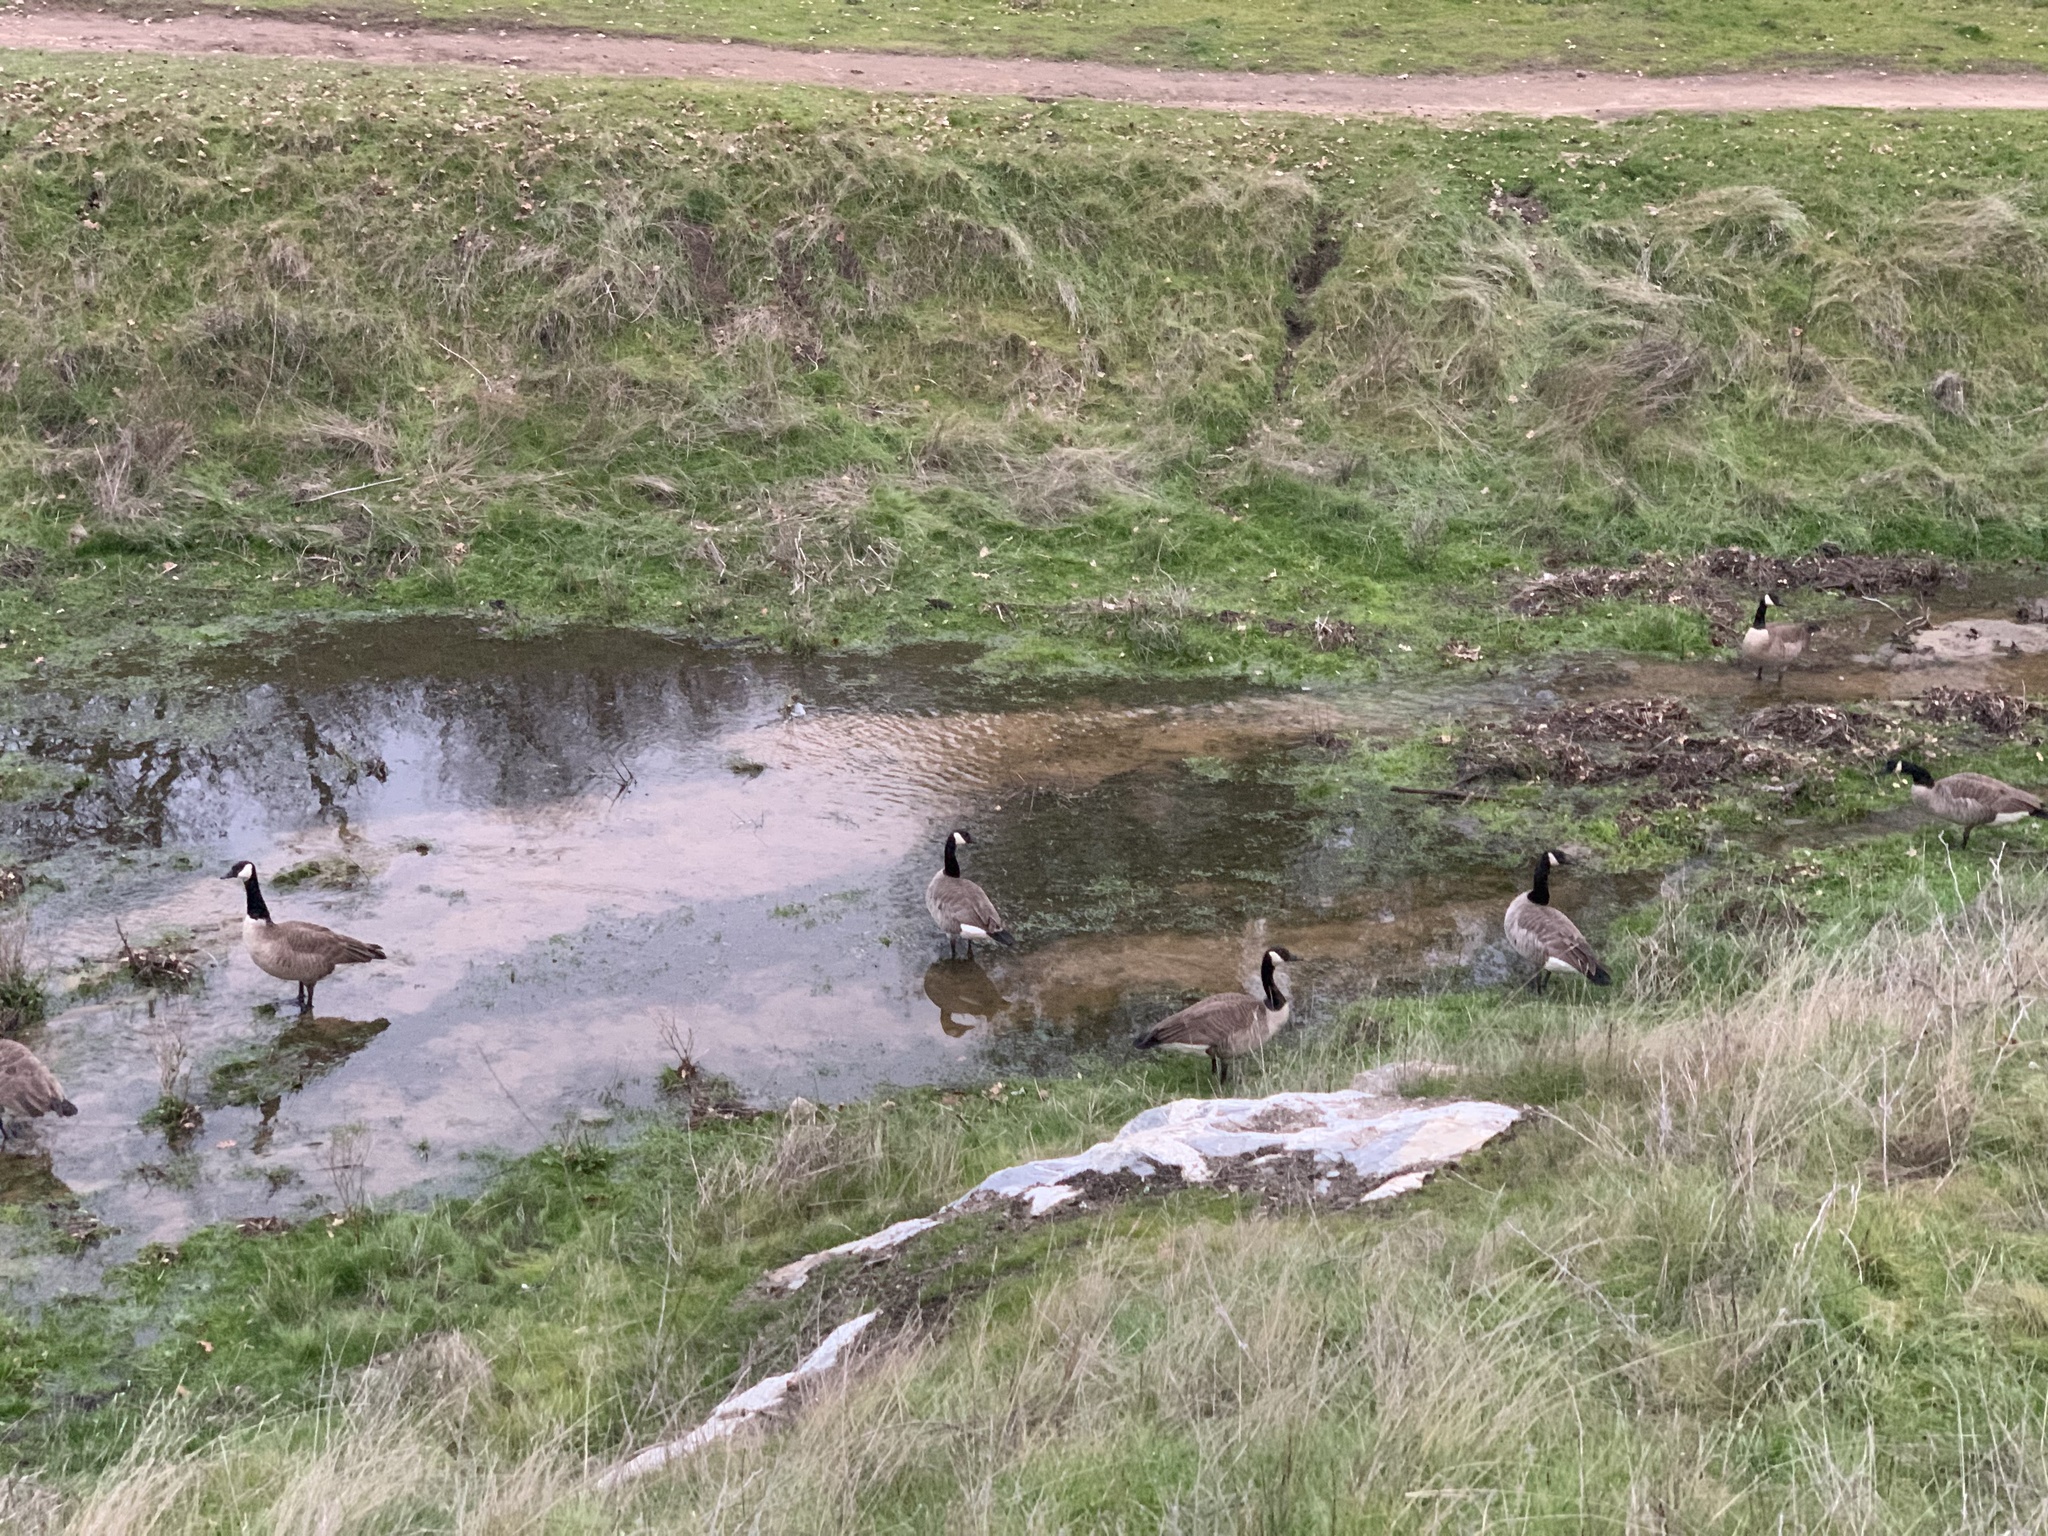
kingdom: Animalia
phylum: Chordata
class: Aves
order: Anseriformes
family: Anatidae
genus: Branta
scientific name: Branta canadensis
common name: Canada goose
